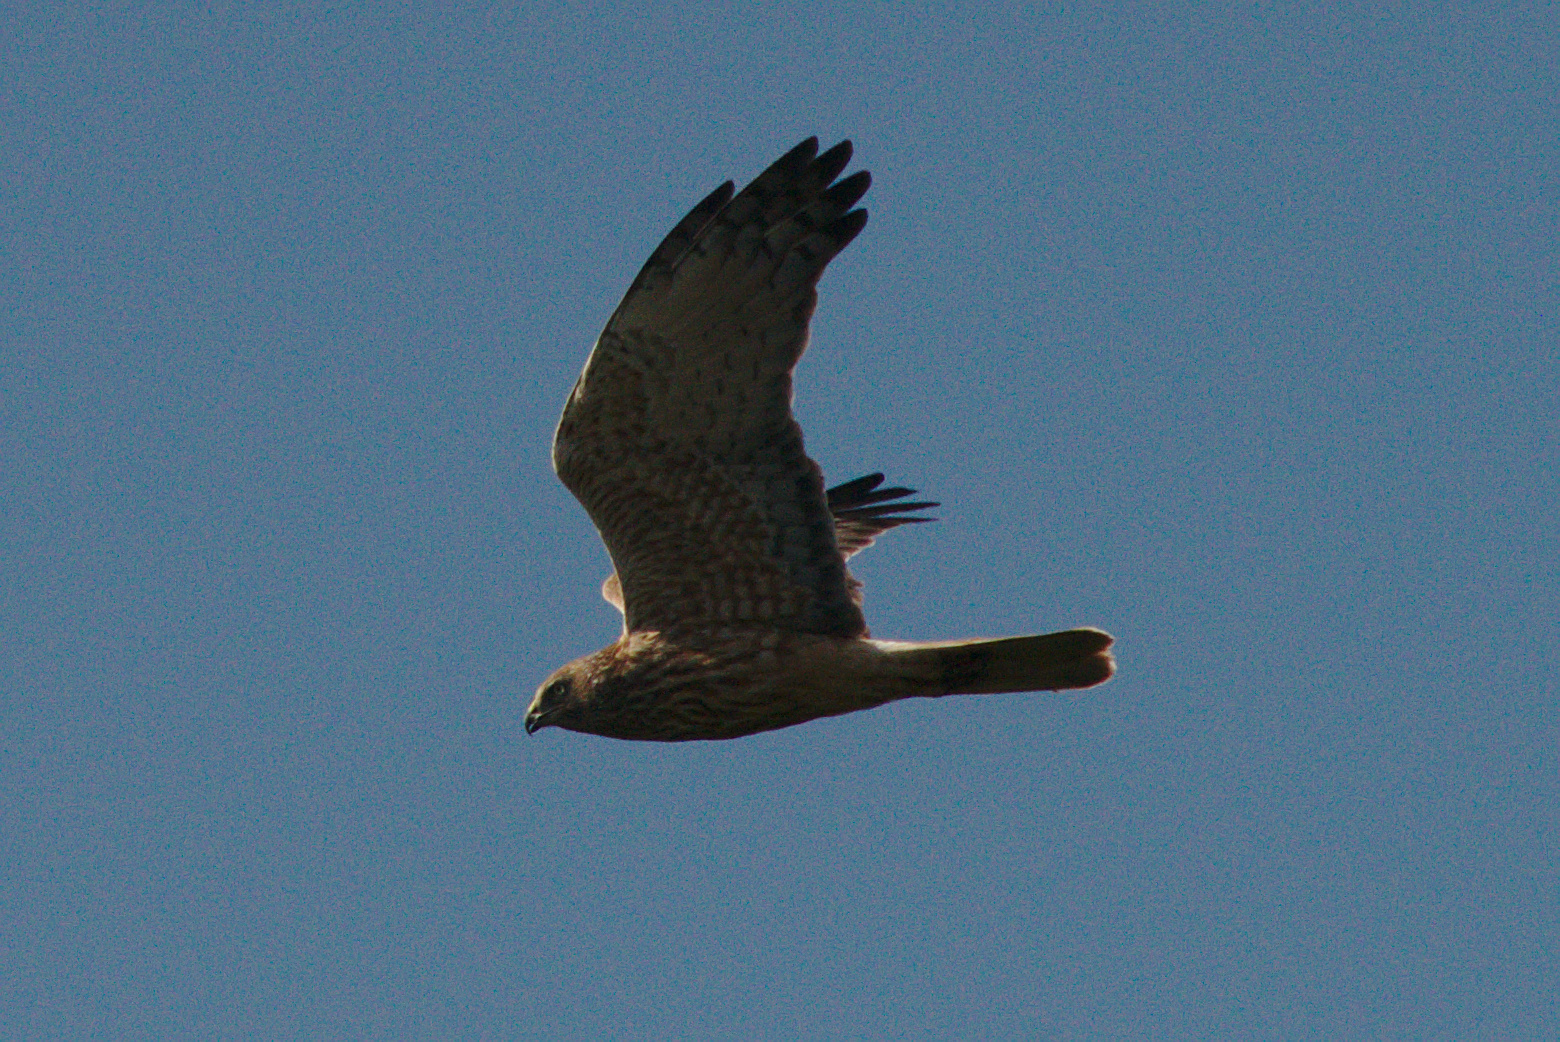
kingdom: Animalia
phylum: Chordata
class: Aves
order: Accipitriformes
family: Accipitridae
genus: Circus
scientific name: Circus approximans
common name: Swamp harrier
